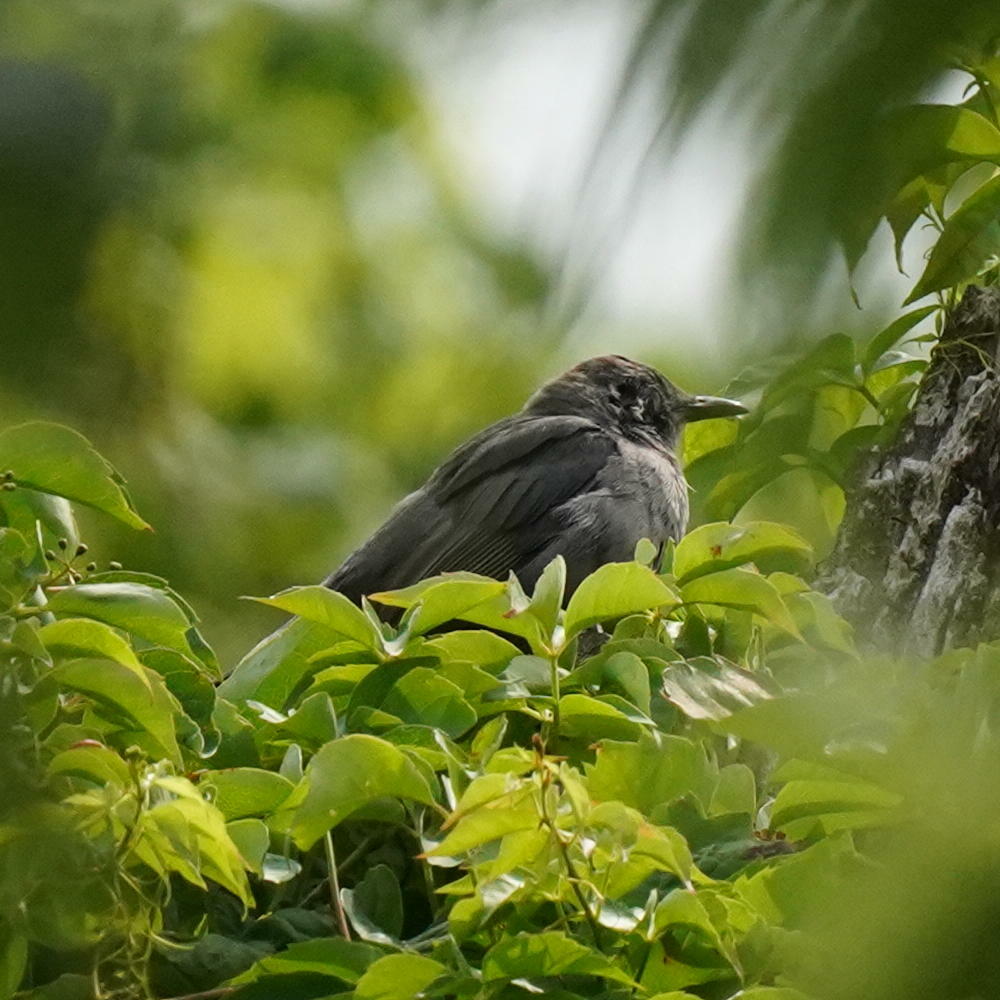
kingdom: Animalia
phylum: Chordata
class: Aves
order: Passeriformes
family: Mimidae
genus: Dumetella
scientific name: Dumetella carolinensis
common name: Gray catbird
